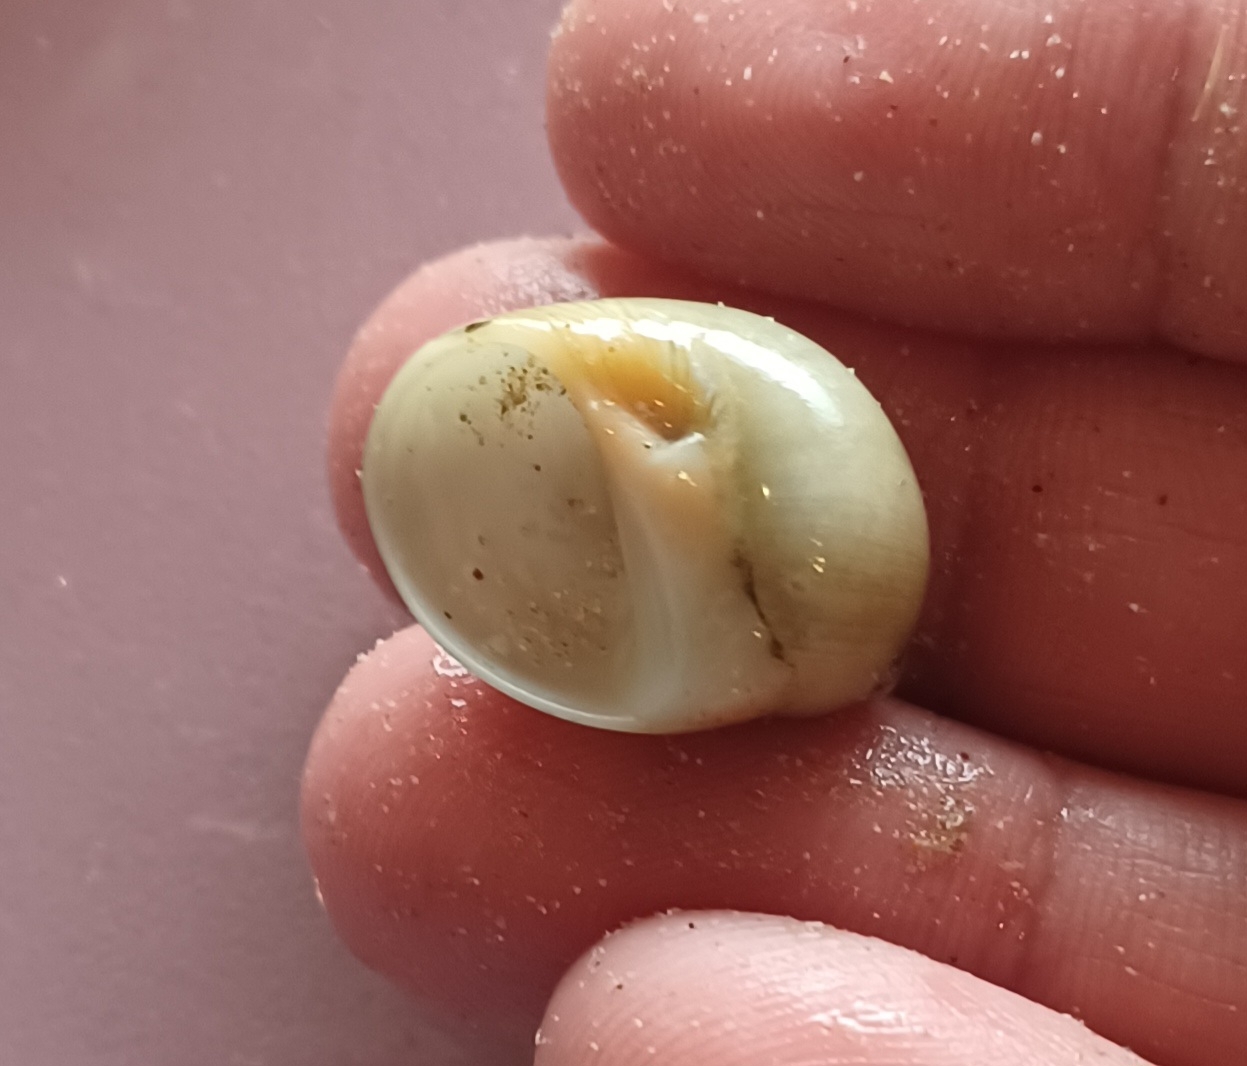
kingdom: Animalia
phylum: Mollusca
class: Gastropoda
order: Littorinimorpha
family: Naticidae
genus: Conuber
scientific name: Conuber conicum
